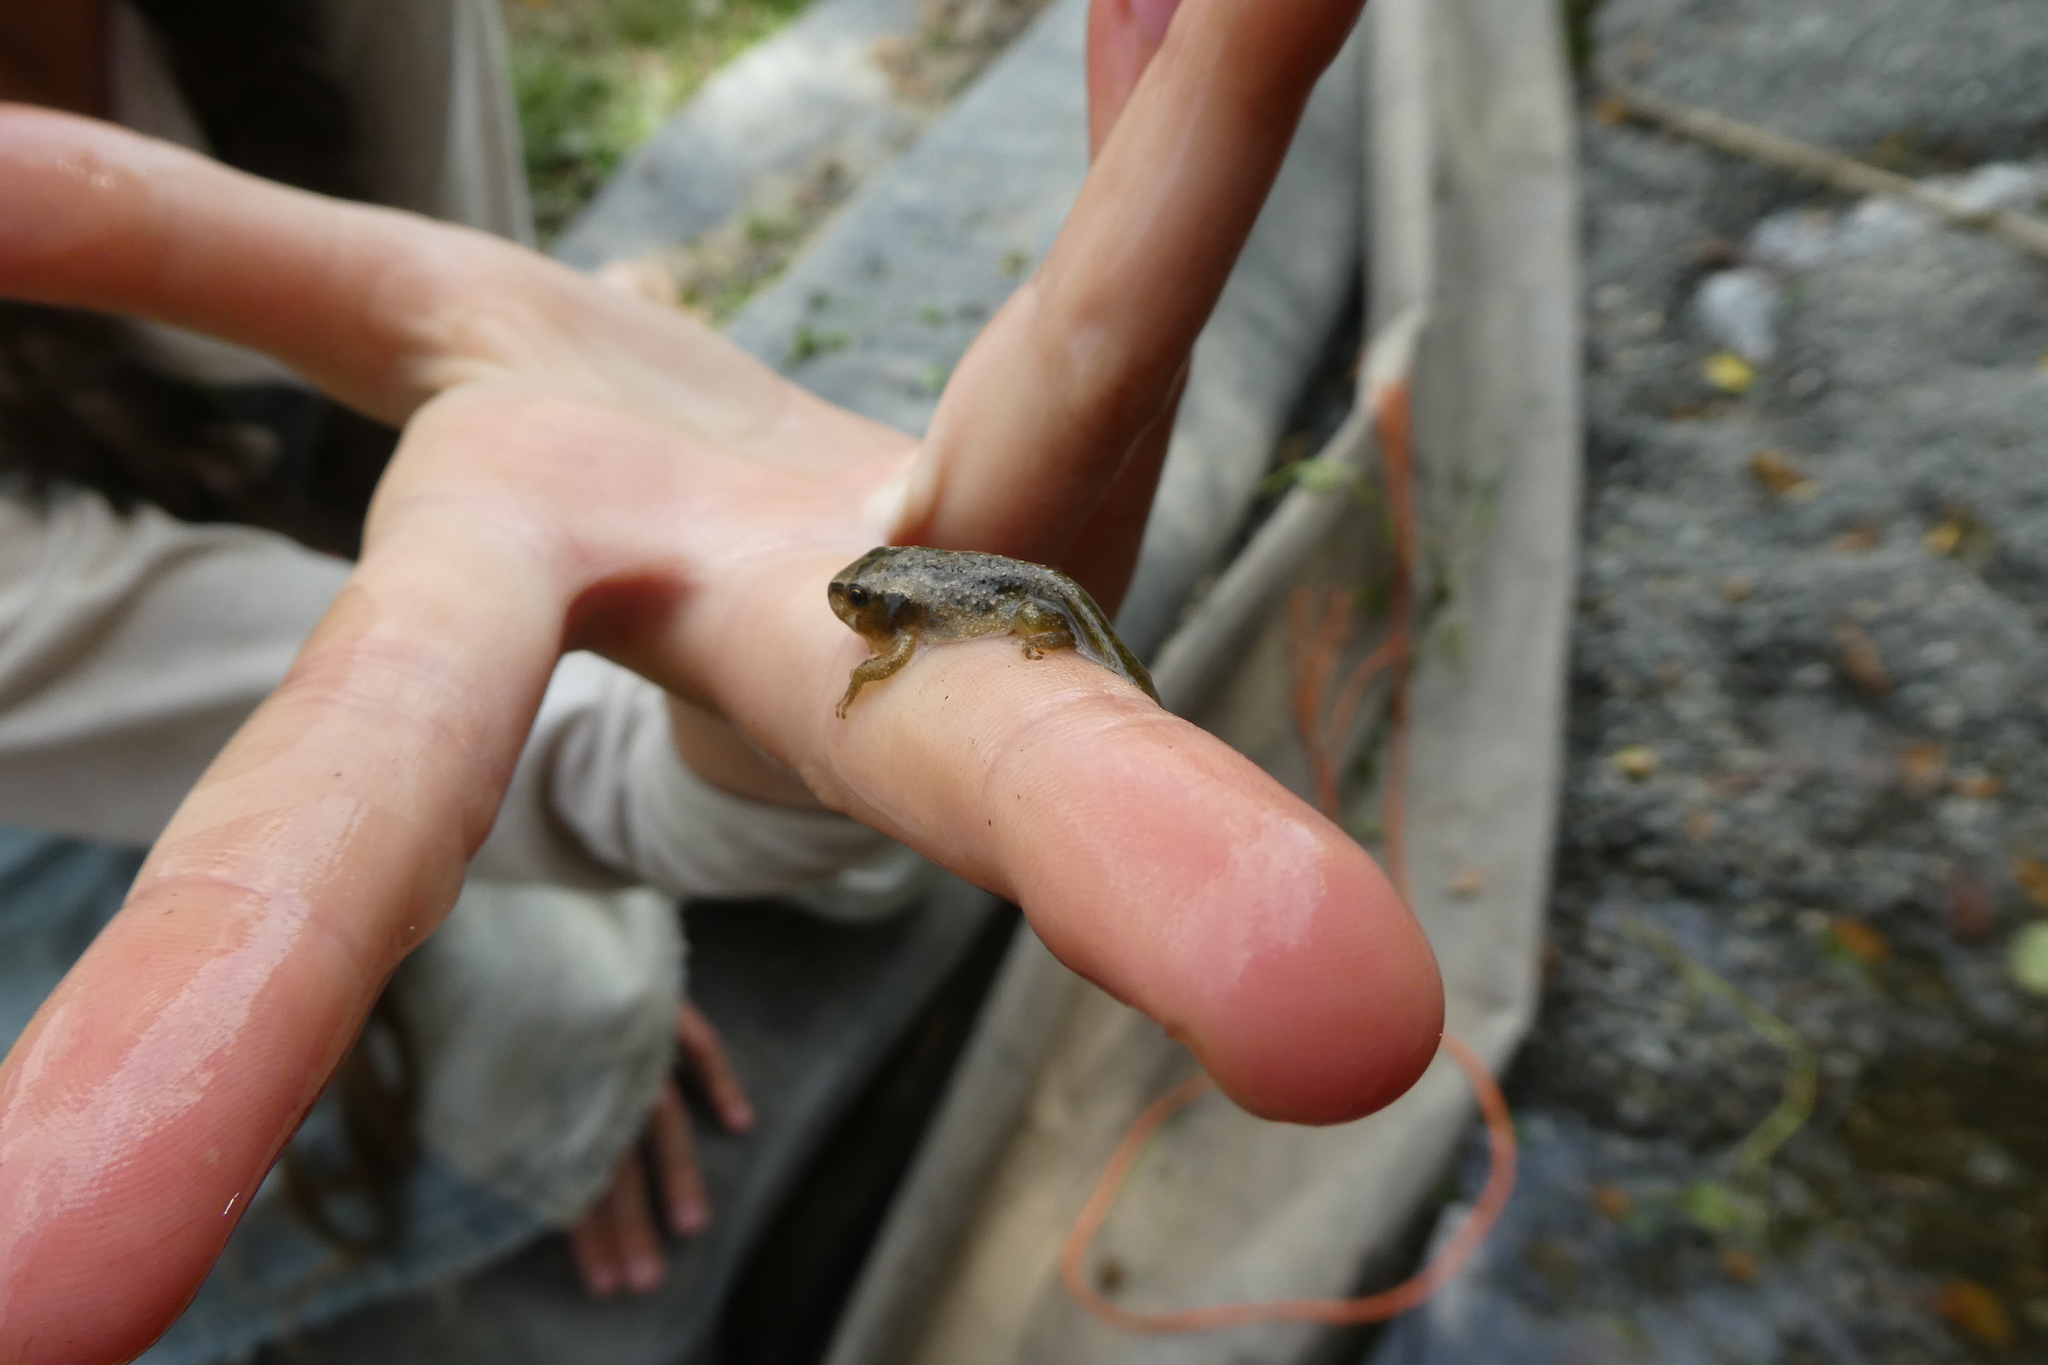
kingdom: Animalia
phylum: Chordata
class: Amphibia
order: Anura
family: Hylidae
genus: Pseudacris
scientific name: Pseudacris regilla
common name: Pacific chorus frog
